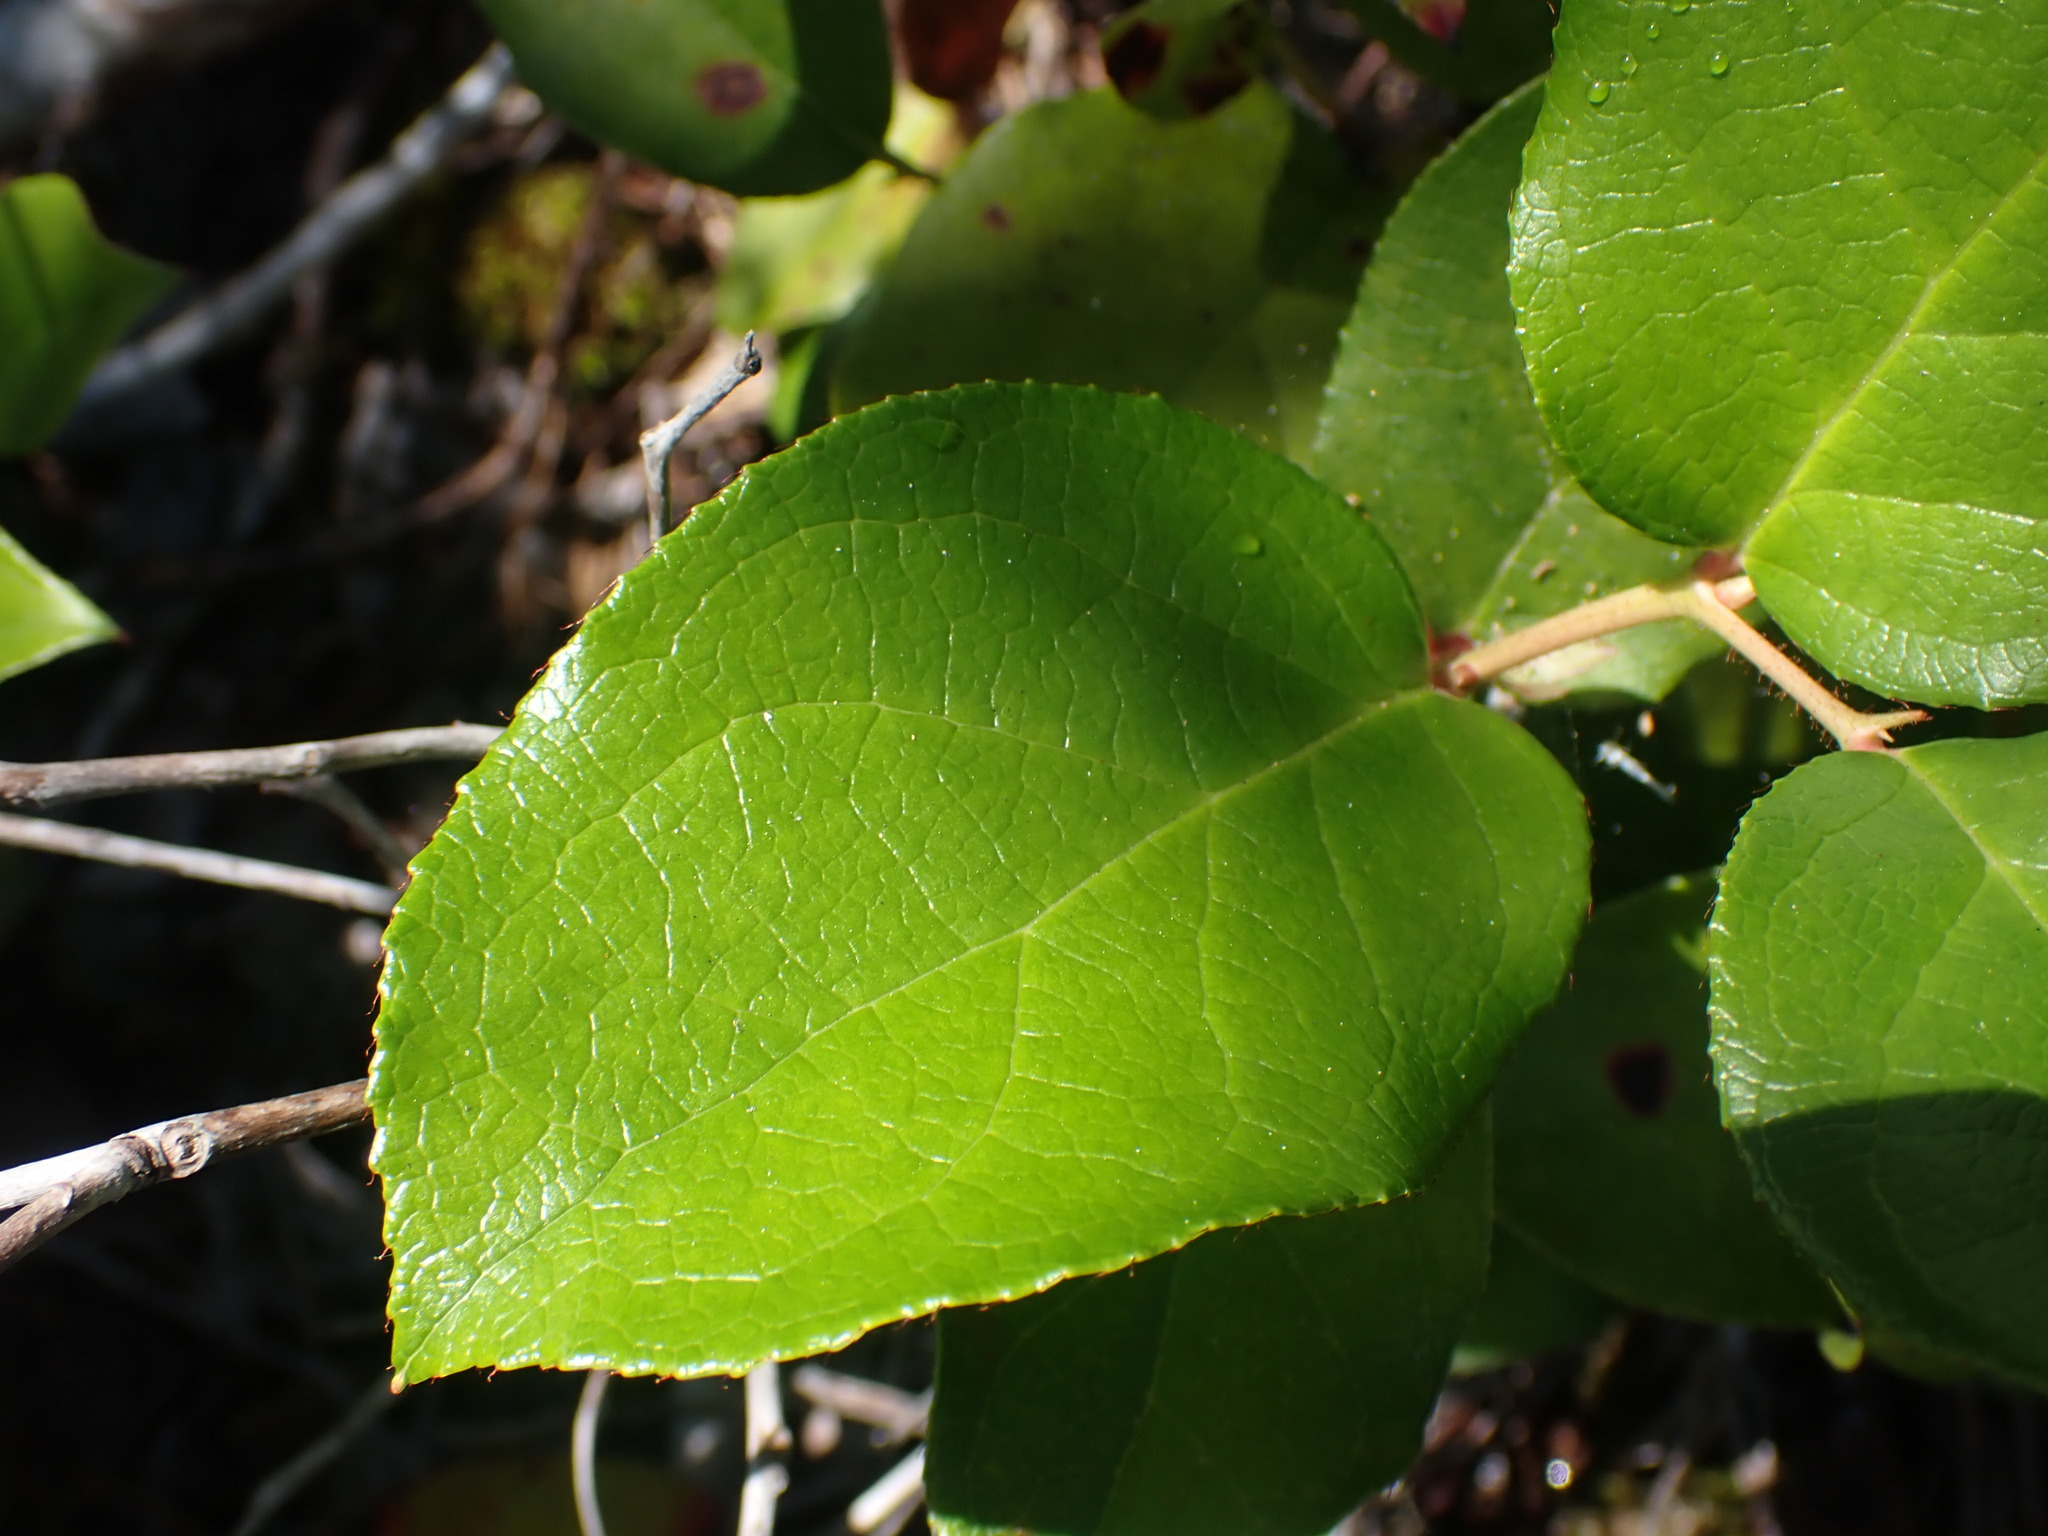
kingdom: Plantae
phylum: Tracheophyta
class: Magnoliopsida
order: Ericales
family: Ericaceae
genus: Gaultheria
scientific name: Gaultheria shallon
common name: Shallon
